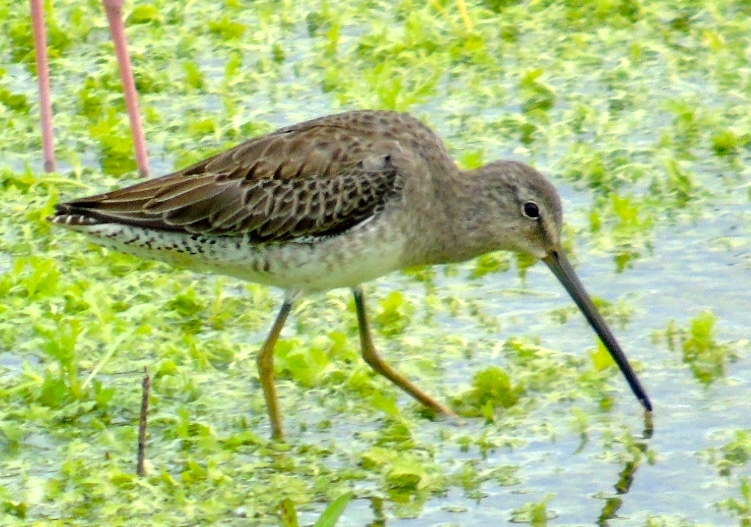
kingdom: Animalia
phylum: Chordata
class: Aves
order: Charadriiformes
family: Scolopacidae
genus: Limnodromus
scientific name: Limnodromus scolopaceus
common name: Long-billed dowitcher
